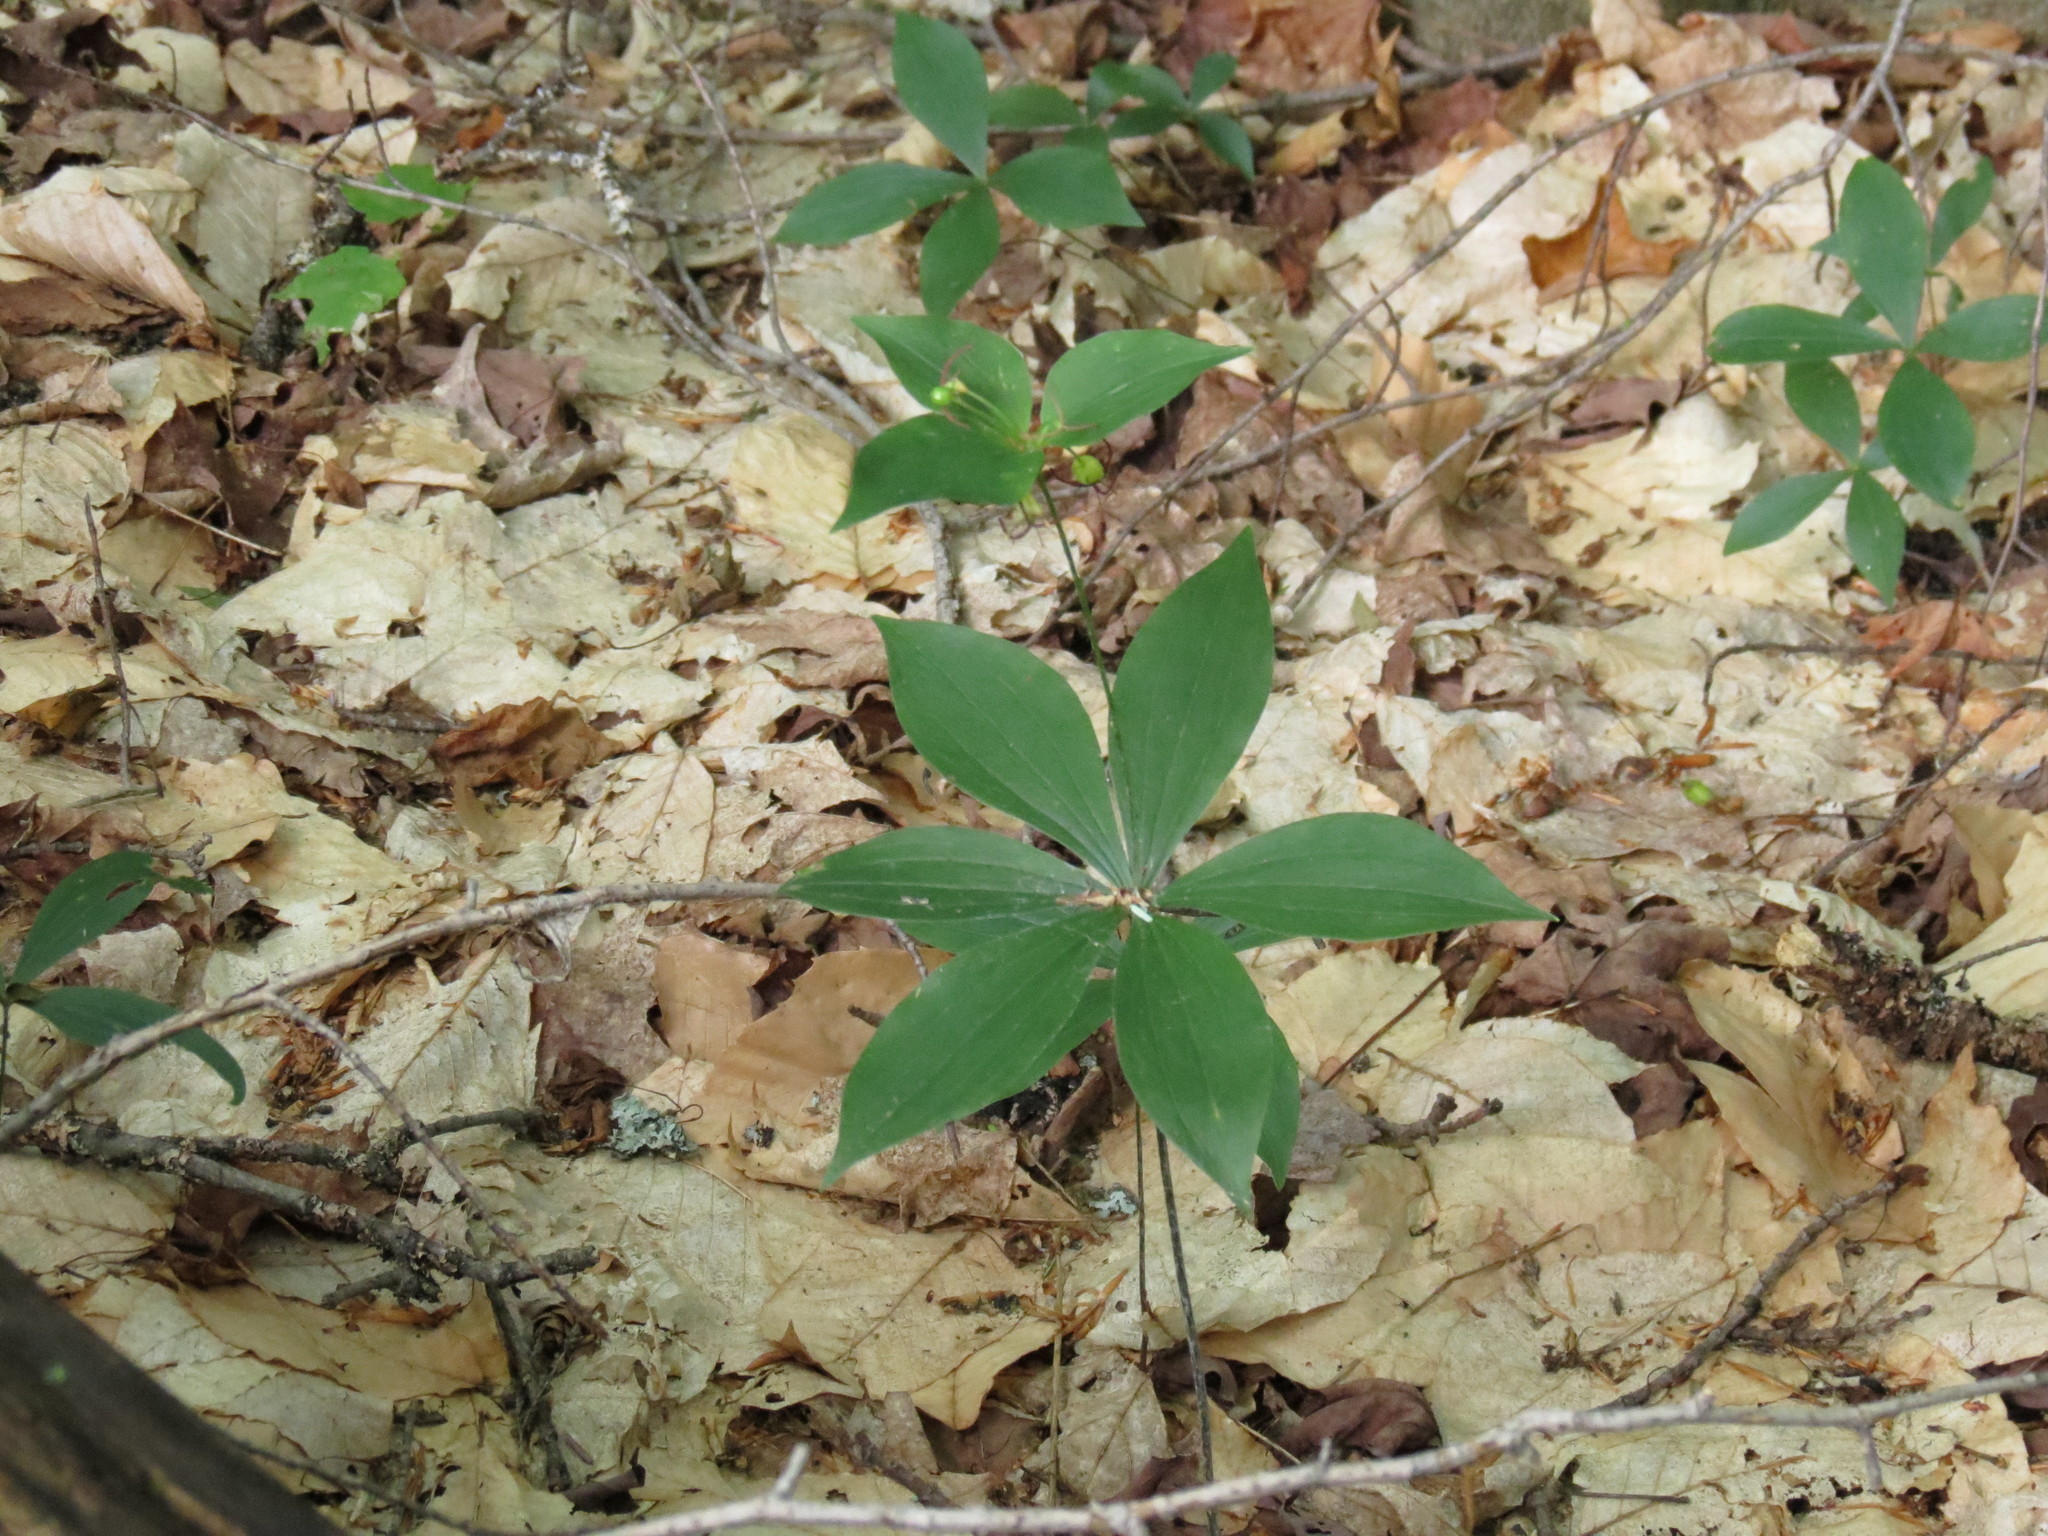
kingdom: Plantae
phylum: Tracheophyta
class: Liliopsida
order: Liliales
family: Liliaceae
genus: Medeola
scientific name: Medeola virginiana
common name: Indian cucumber-root
